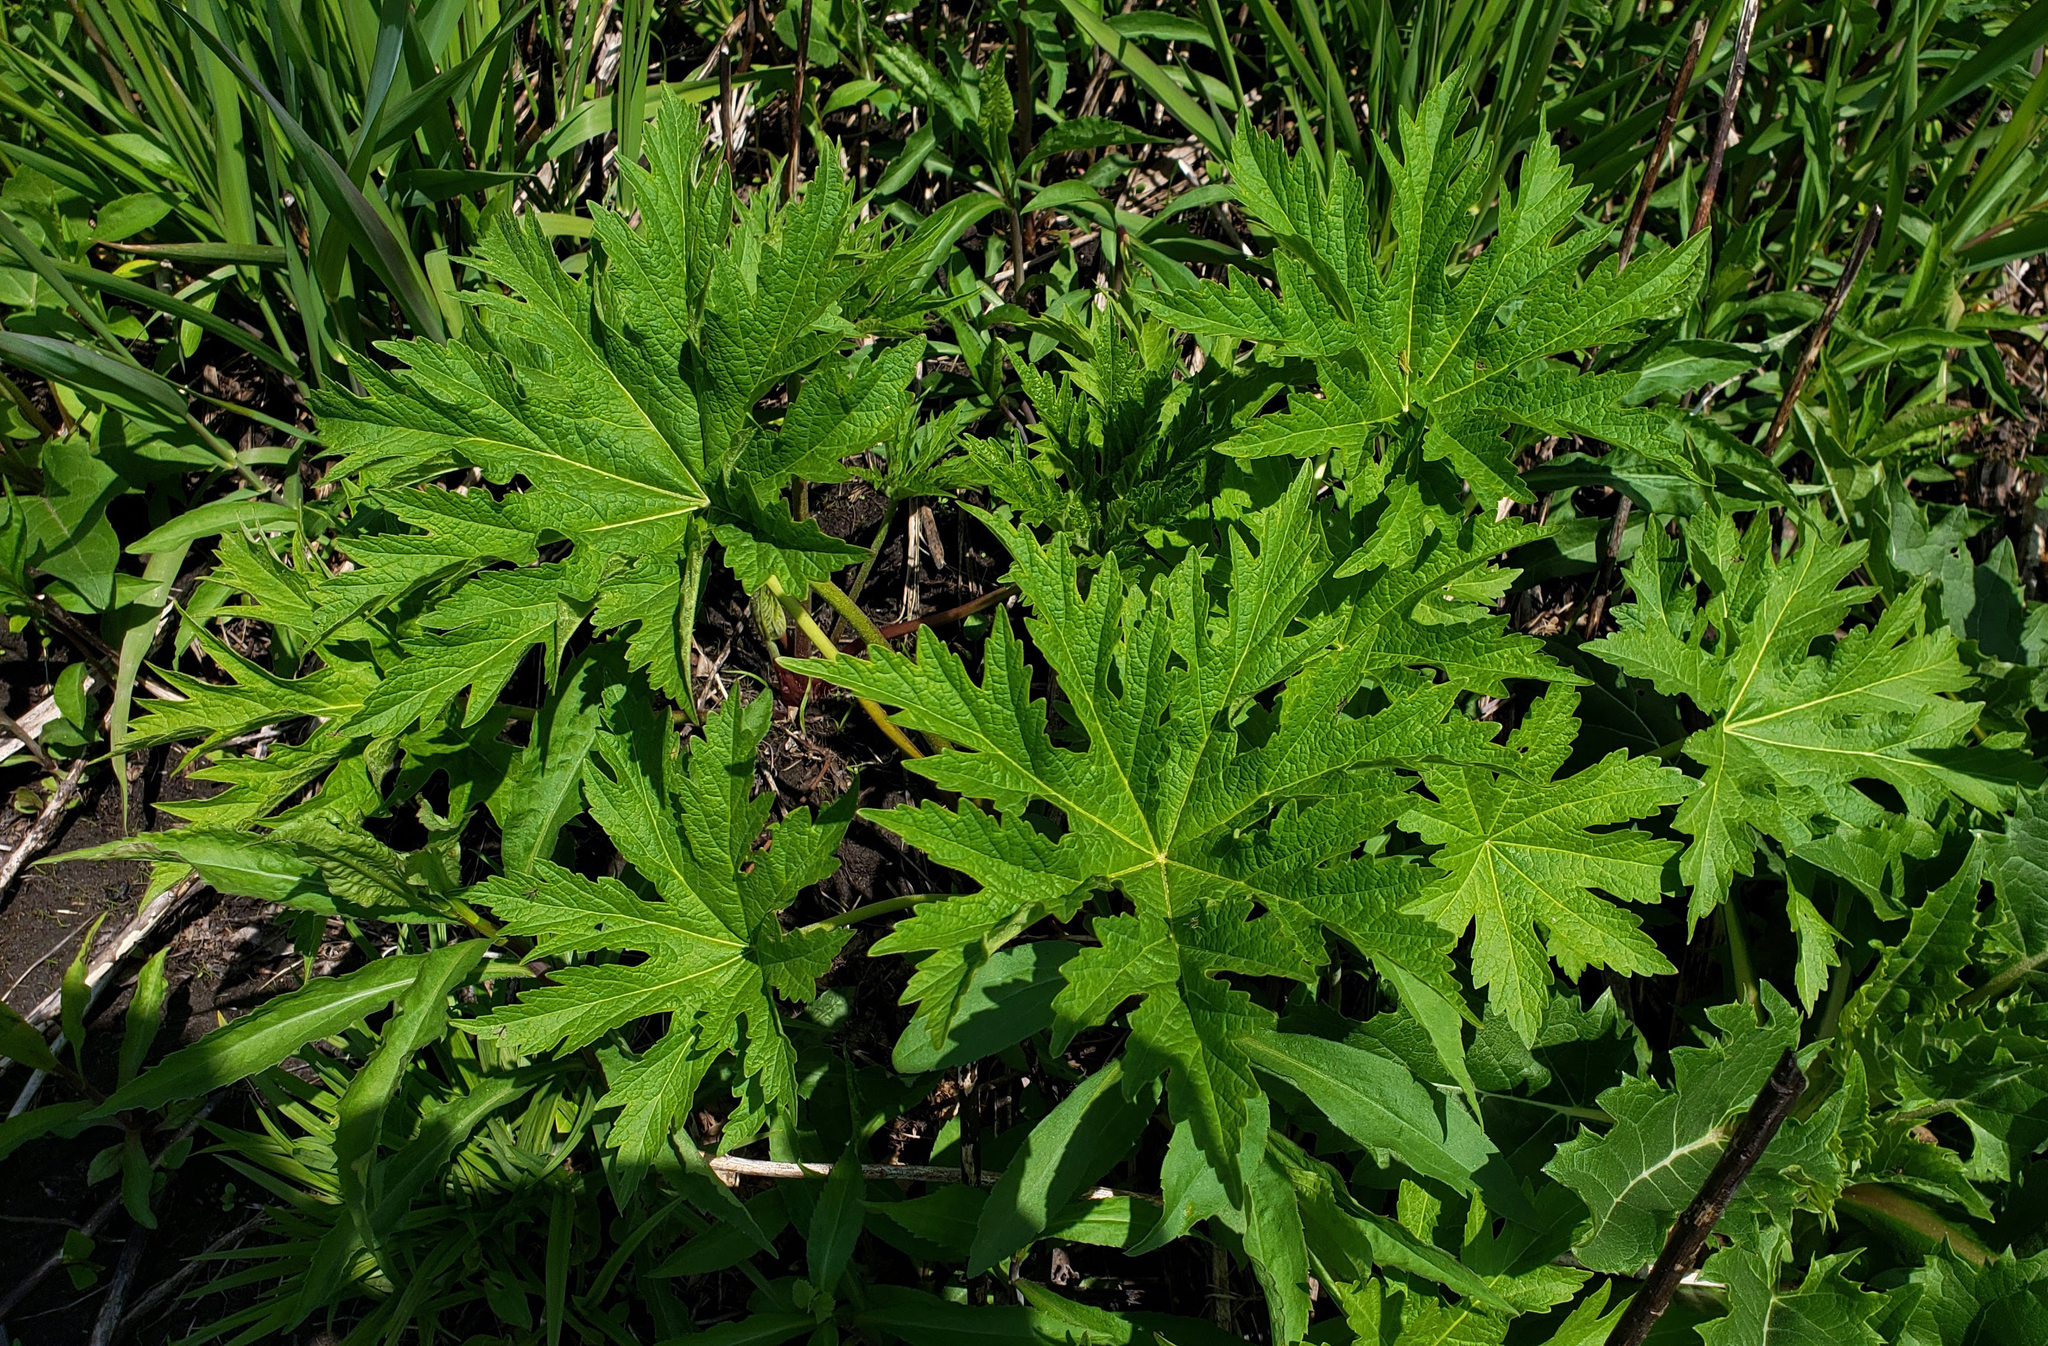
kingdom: Plantae
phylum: Tracheophyta
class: Magnoliopsida
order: Malvales
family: Malvaceae
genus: Napaea
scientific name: Napaea dioica
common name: Glade-mallow
